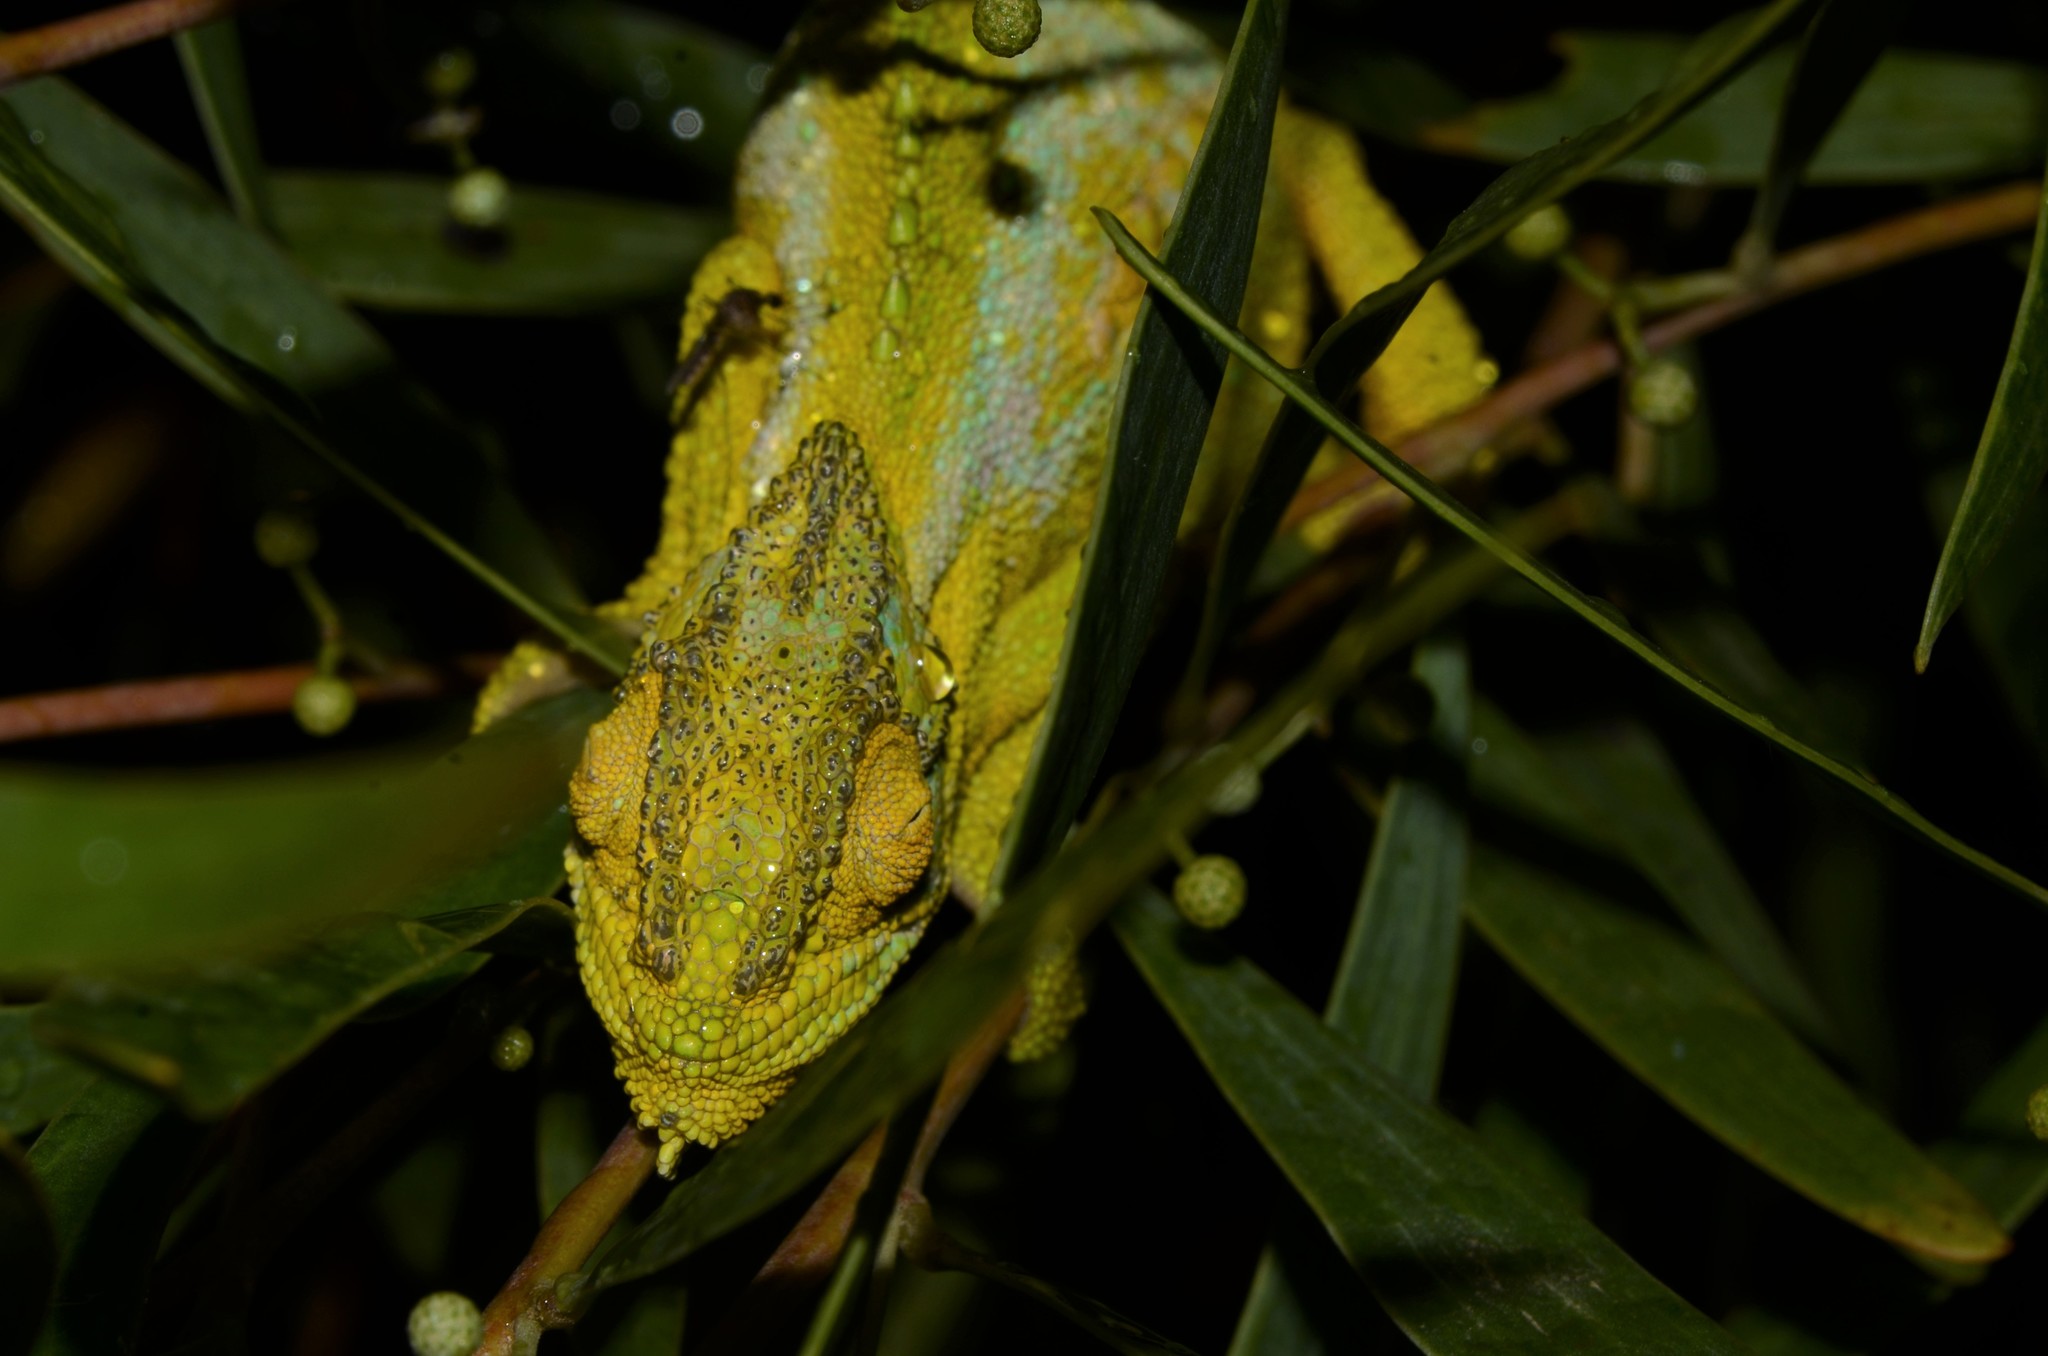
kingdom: Animalia
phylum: Chordata
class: Squamata
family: Chamaeleonidae
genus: Bradypodion
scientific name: Bradypodion pumilum
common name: Cape dwarf chameleon
